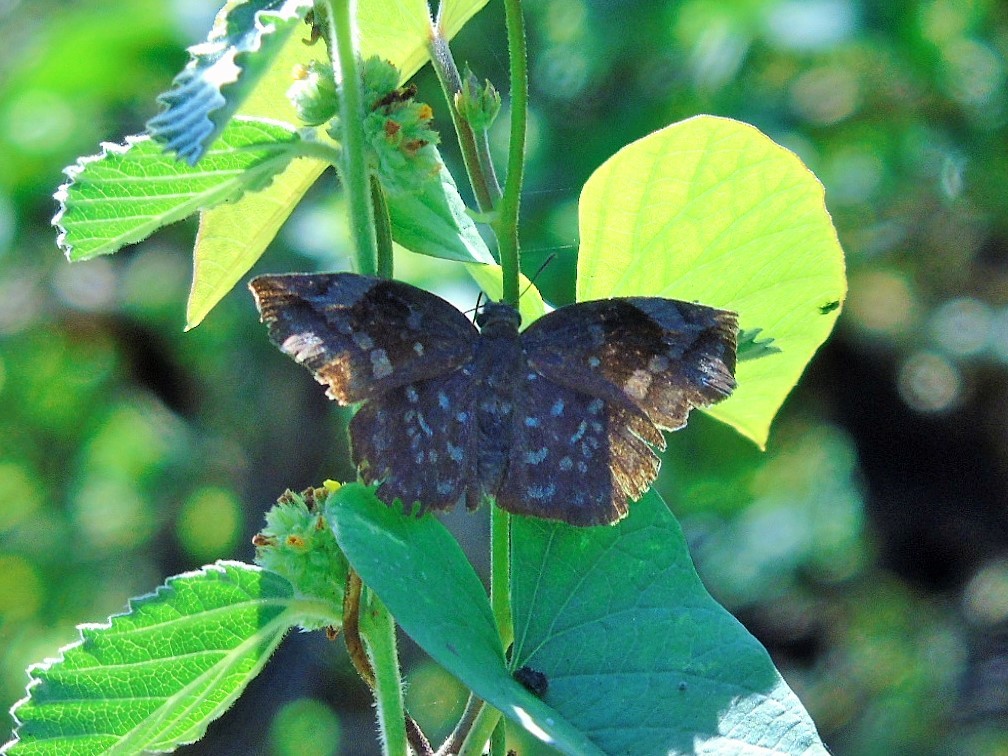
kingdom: Animalia
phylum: Arthropoda
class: Insecta
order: Lepidoptera
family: Hesperiidae
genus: Achlyodes
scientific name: Achlyodes thraso
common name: Sickle-winged skipper
